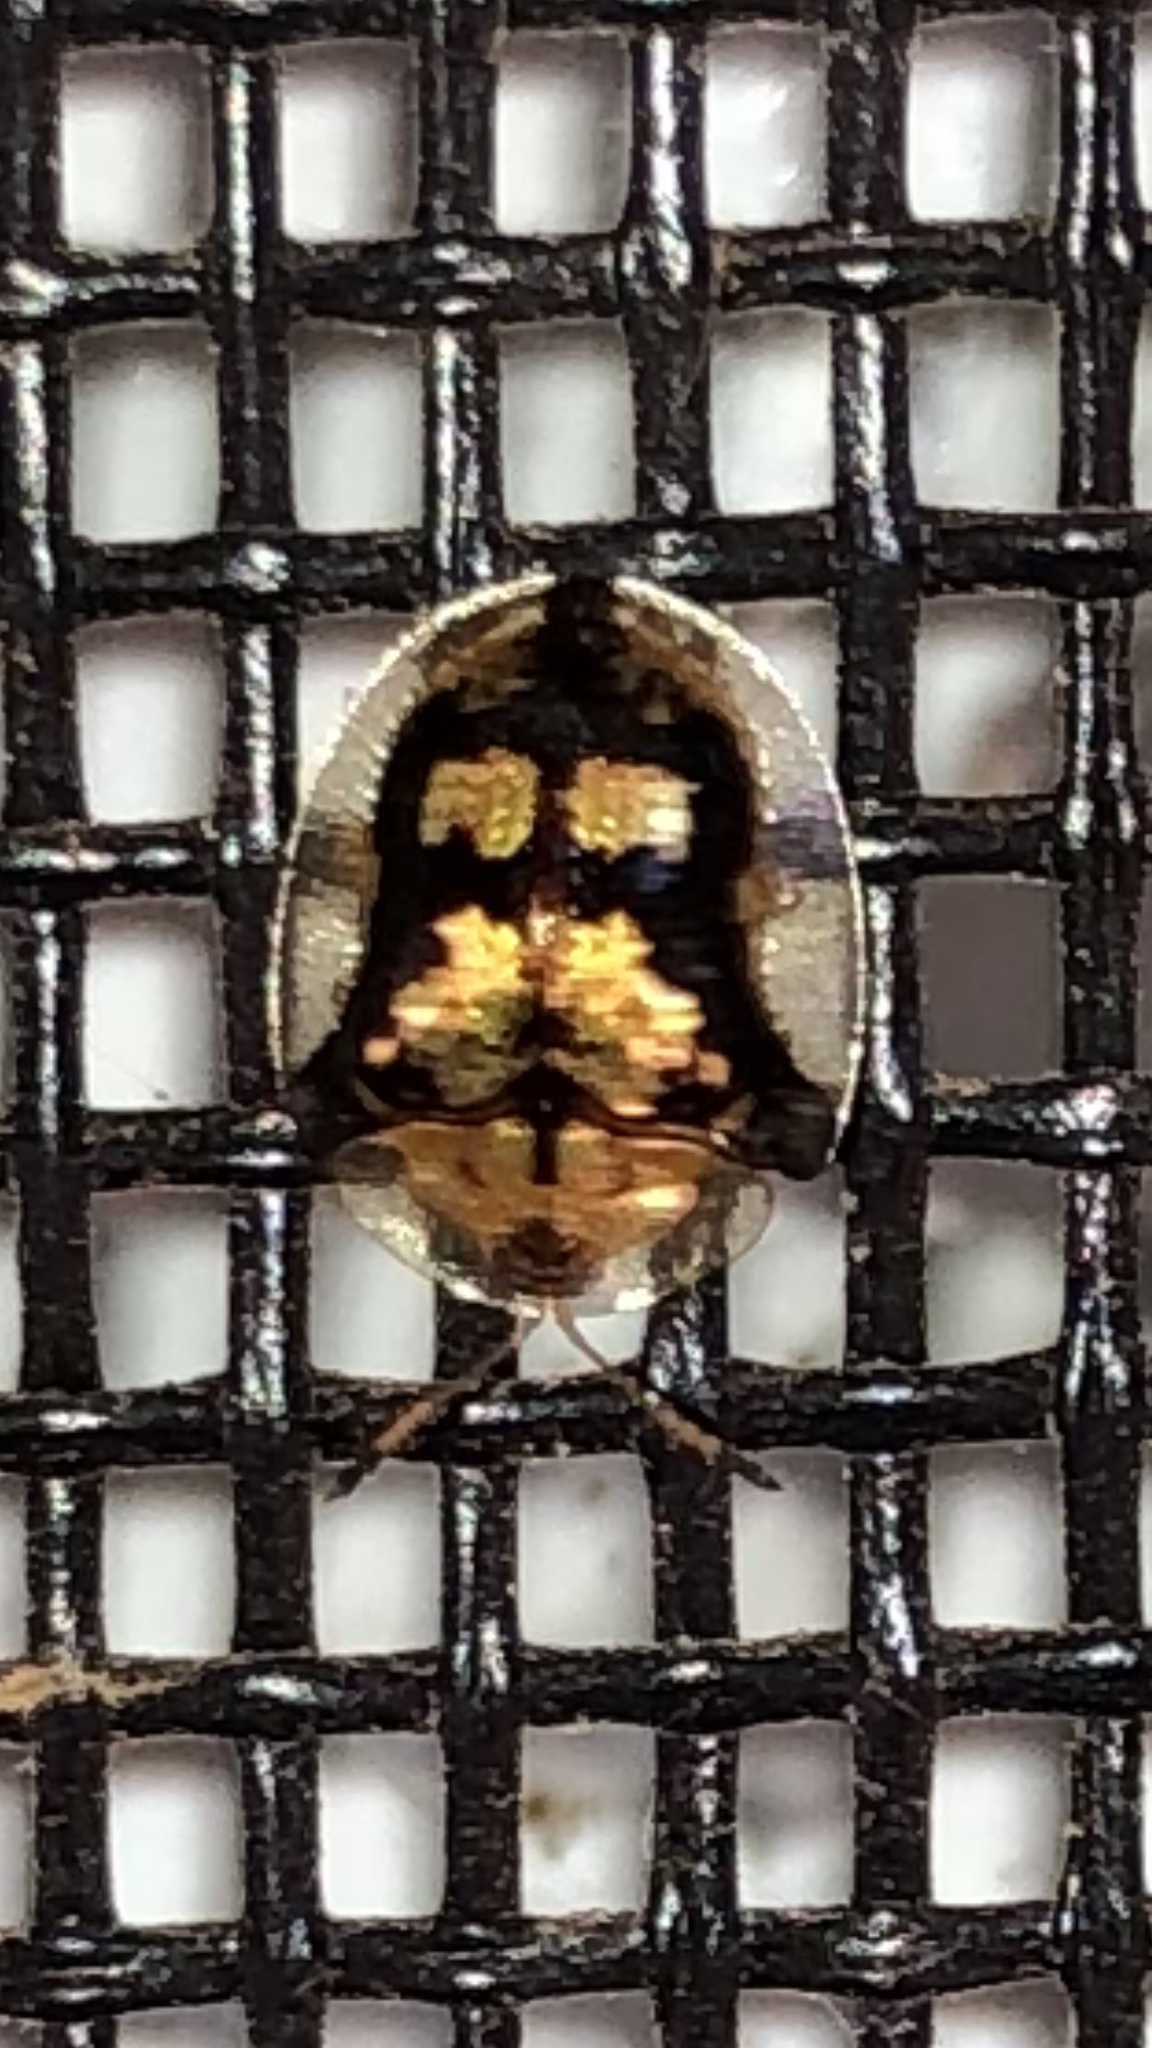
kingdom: Animalia
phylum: Arthropoda
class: Insecta
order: Coleoptera
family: Chrysomelidae
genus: Deloyala
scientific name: Deloyala guttata
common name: Mottled tortoise beetle
